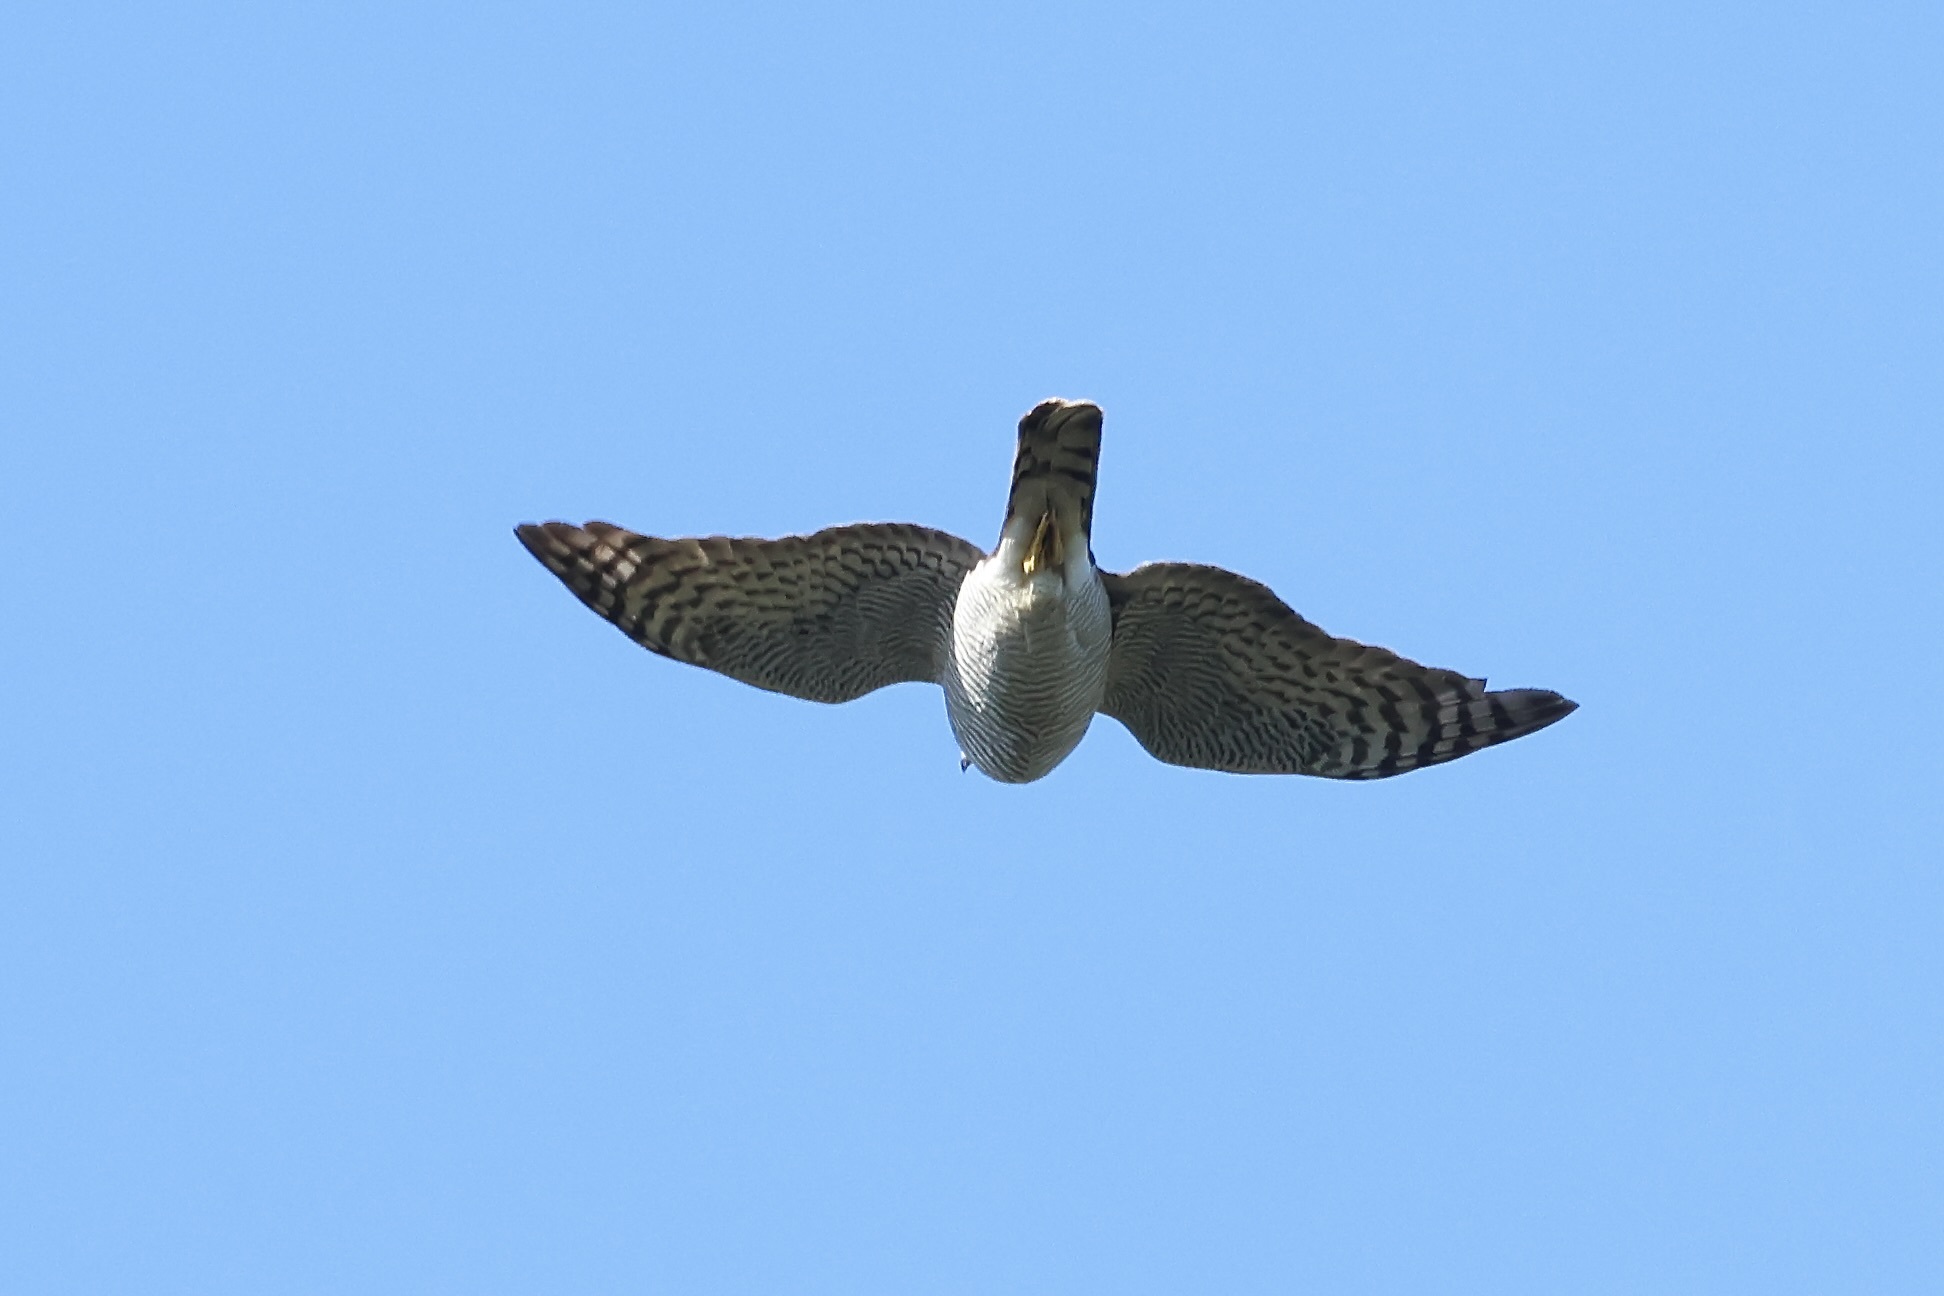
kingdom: Animalia
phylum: Chordata
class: Aves
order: Accipitriformes
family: Accipitridae
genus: Accipiter
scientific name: Accipiter nisus
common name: Eurasian sparrowhawk
